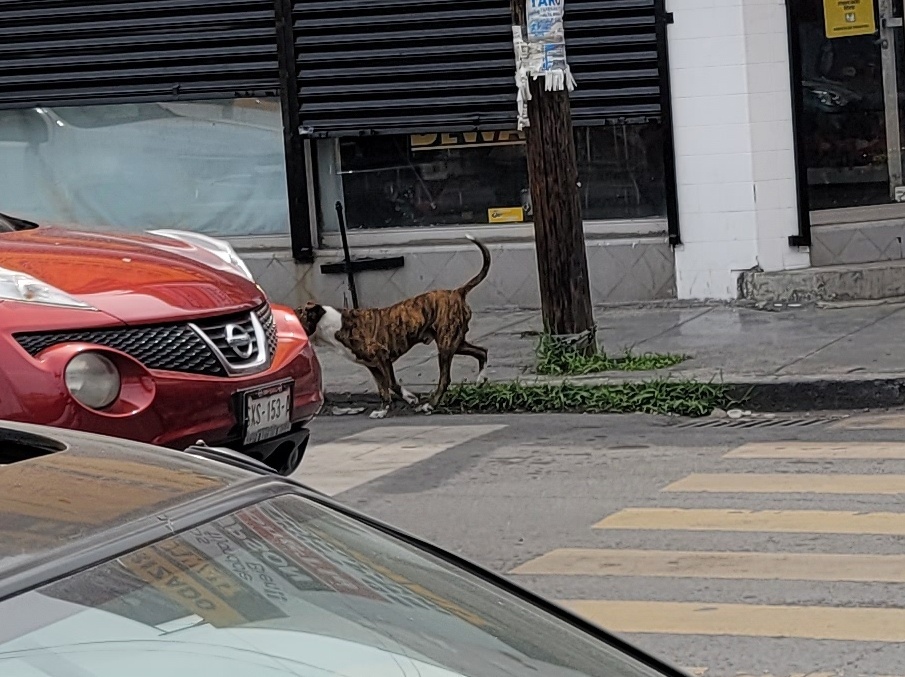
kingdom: Animalia
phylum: Chordata
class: Mammalia
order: Carnivora
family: Canidae
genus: Canis
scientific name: Canis lupus
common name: Gray wolf
